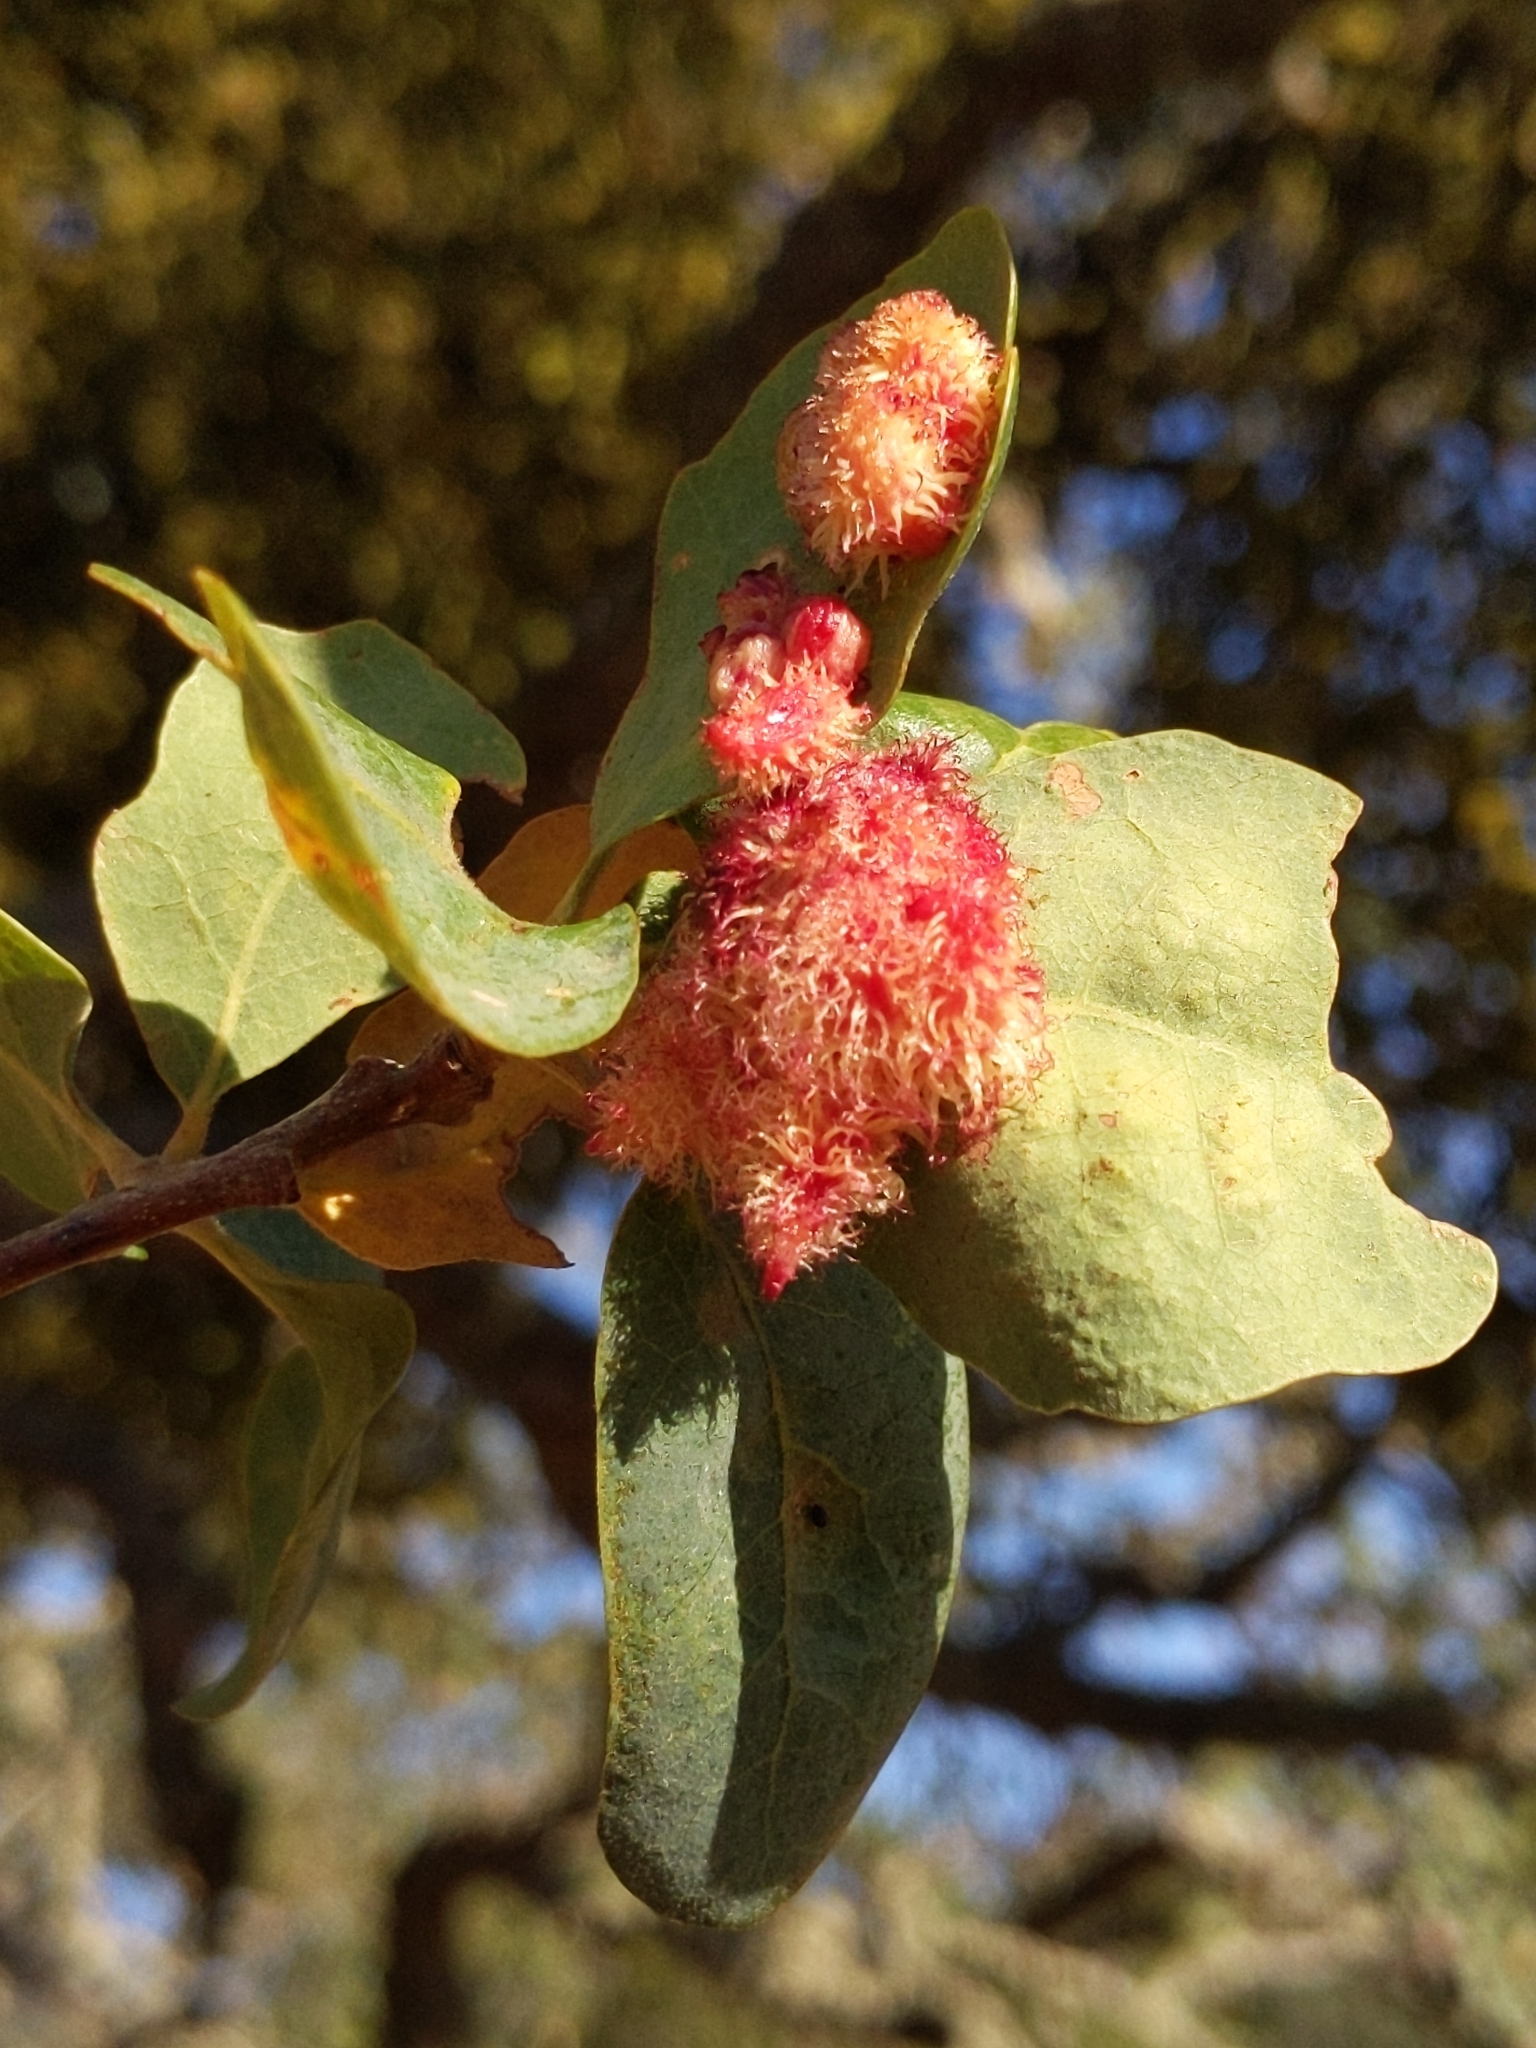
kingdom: Animalia
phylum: Arthropoda
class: Insecta
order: Hymenoptera
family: Cynipidae
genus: Andricus
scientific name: Andricus
